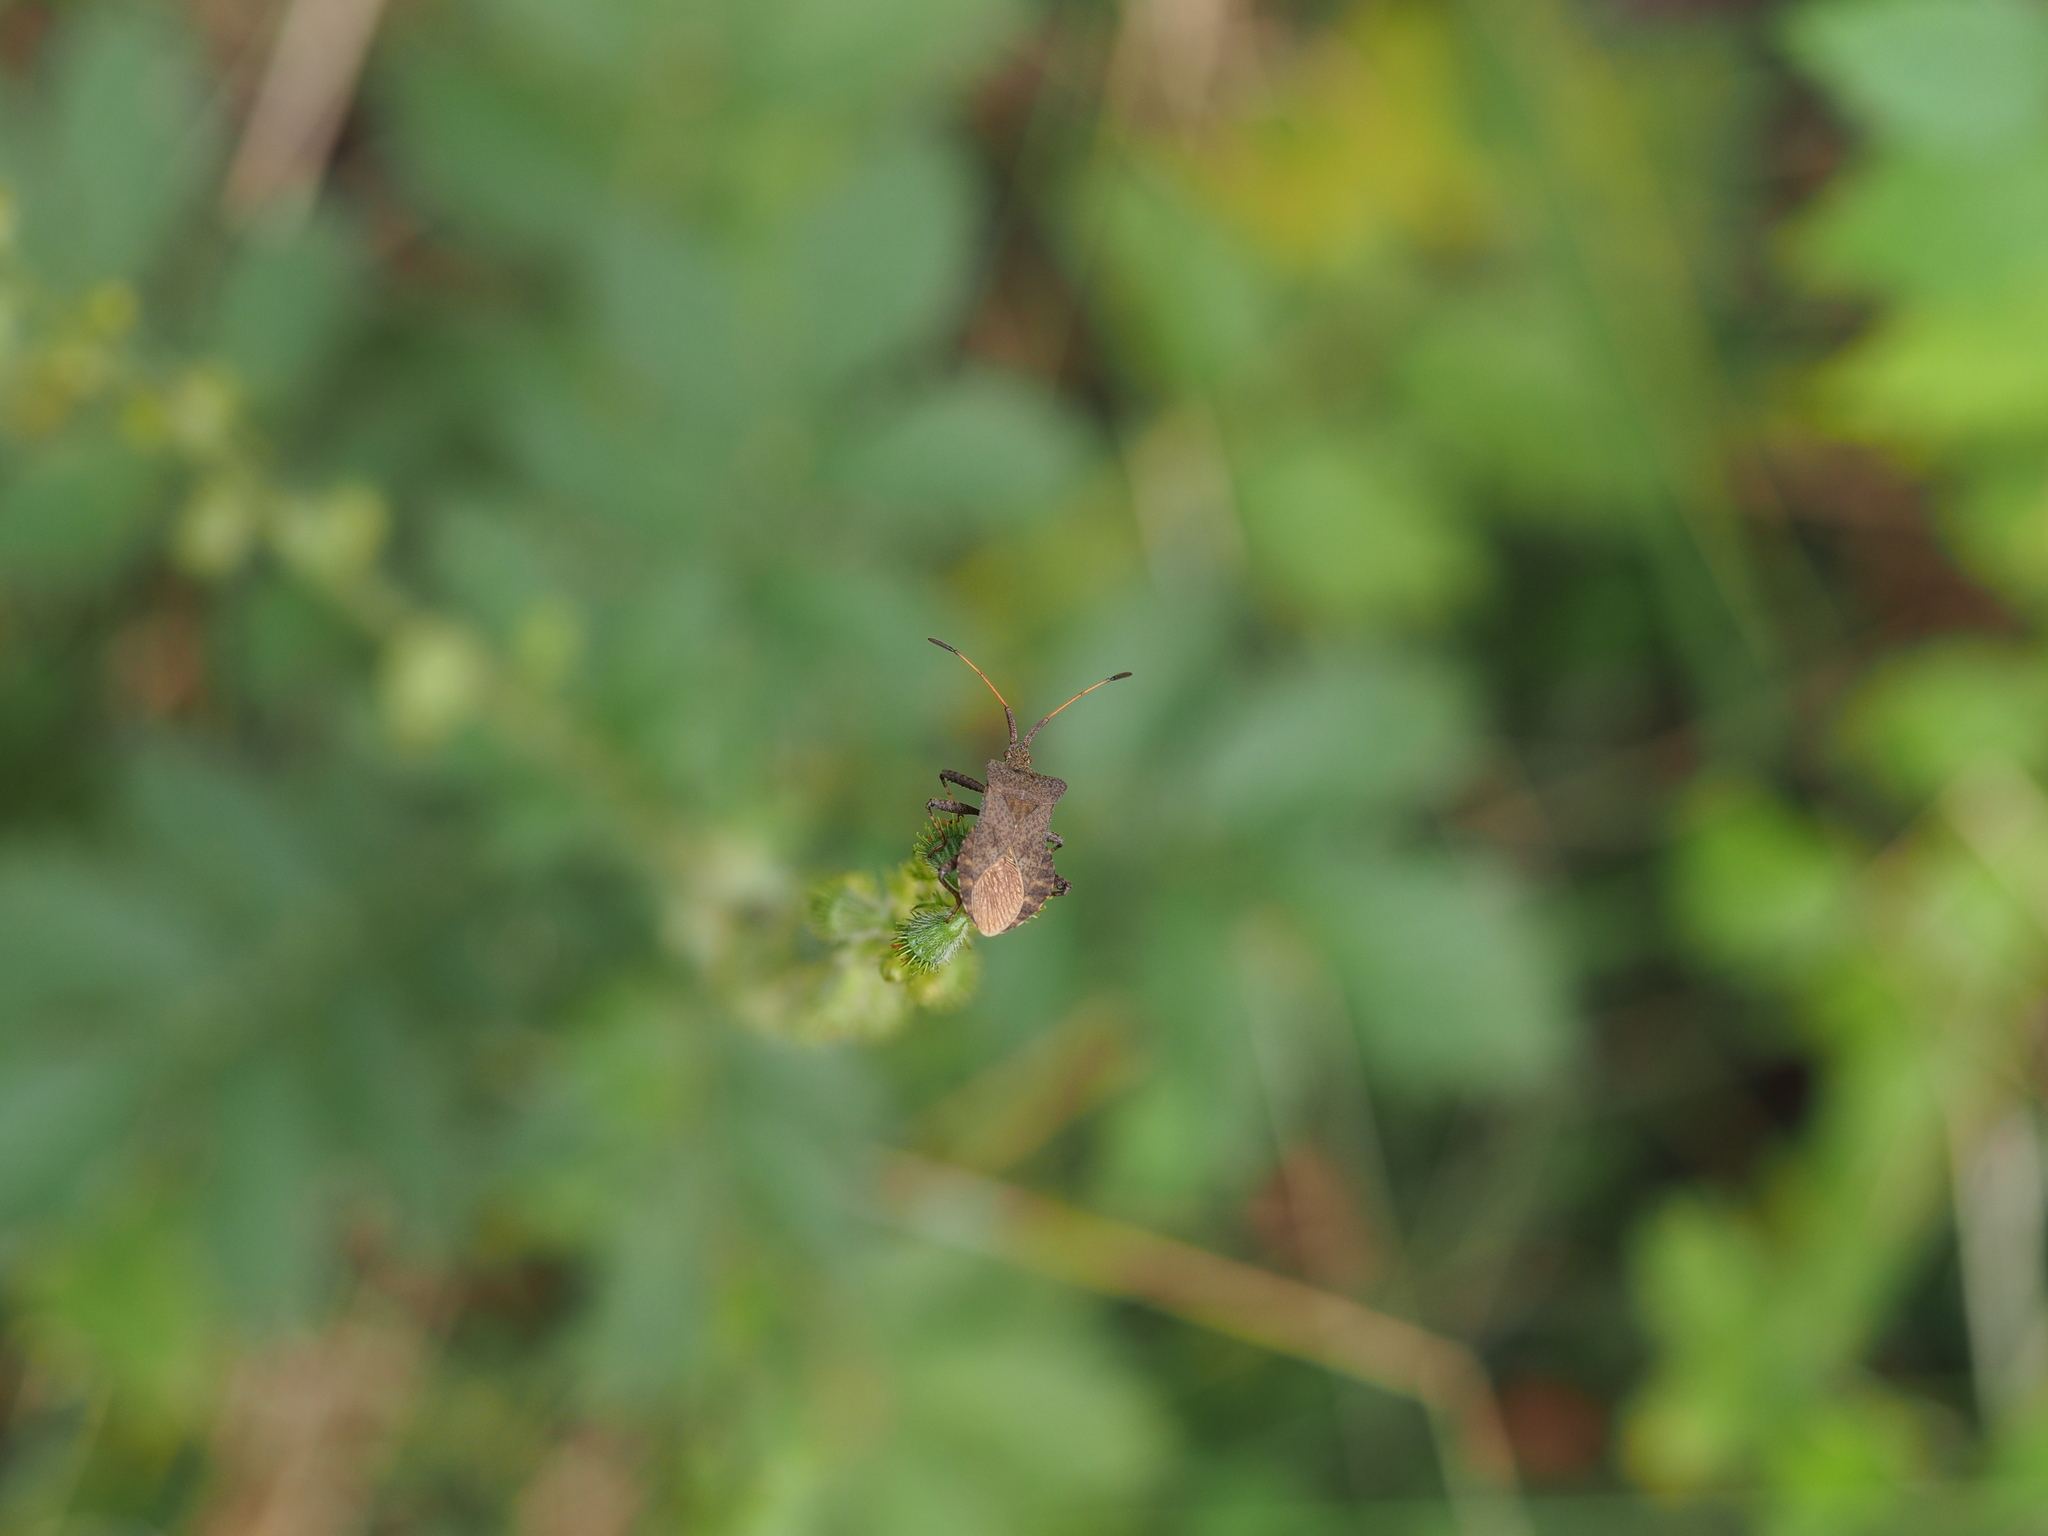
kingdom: Animalia
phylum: Arthropoda
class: Insecta
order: Hemiptera
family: Coreidae
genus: Coreus
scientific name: Coreus marginatus
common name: Dock bug
